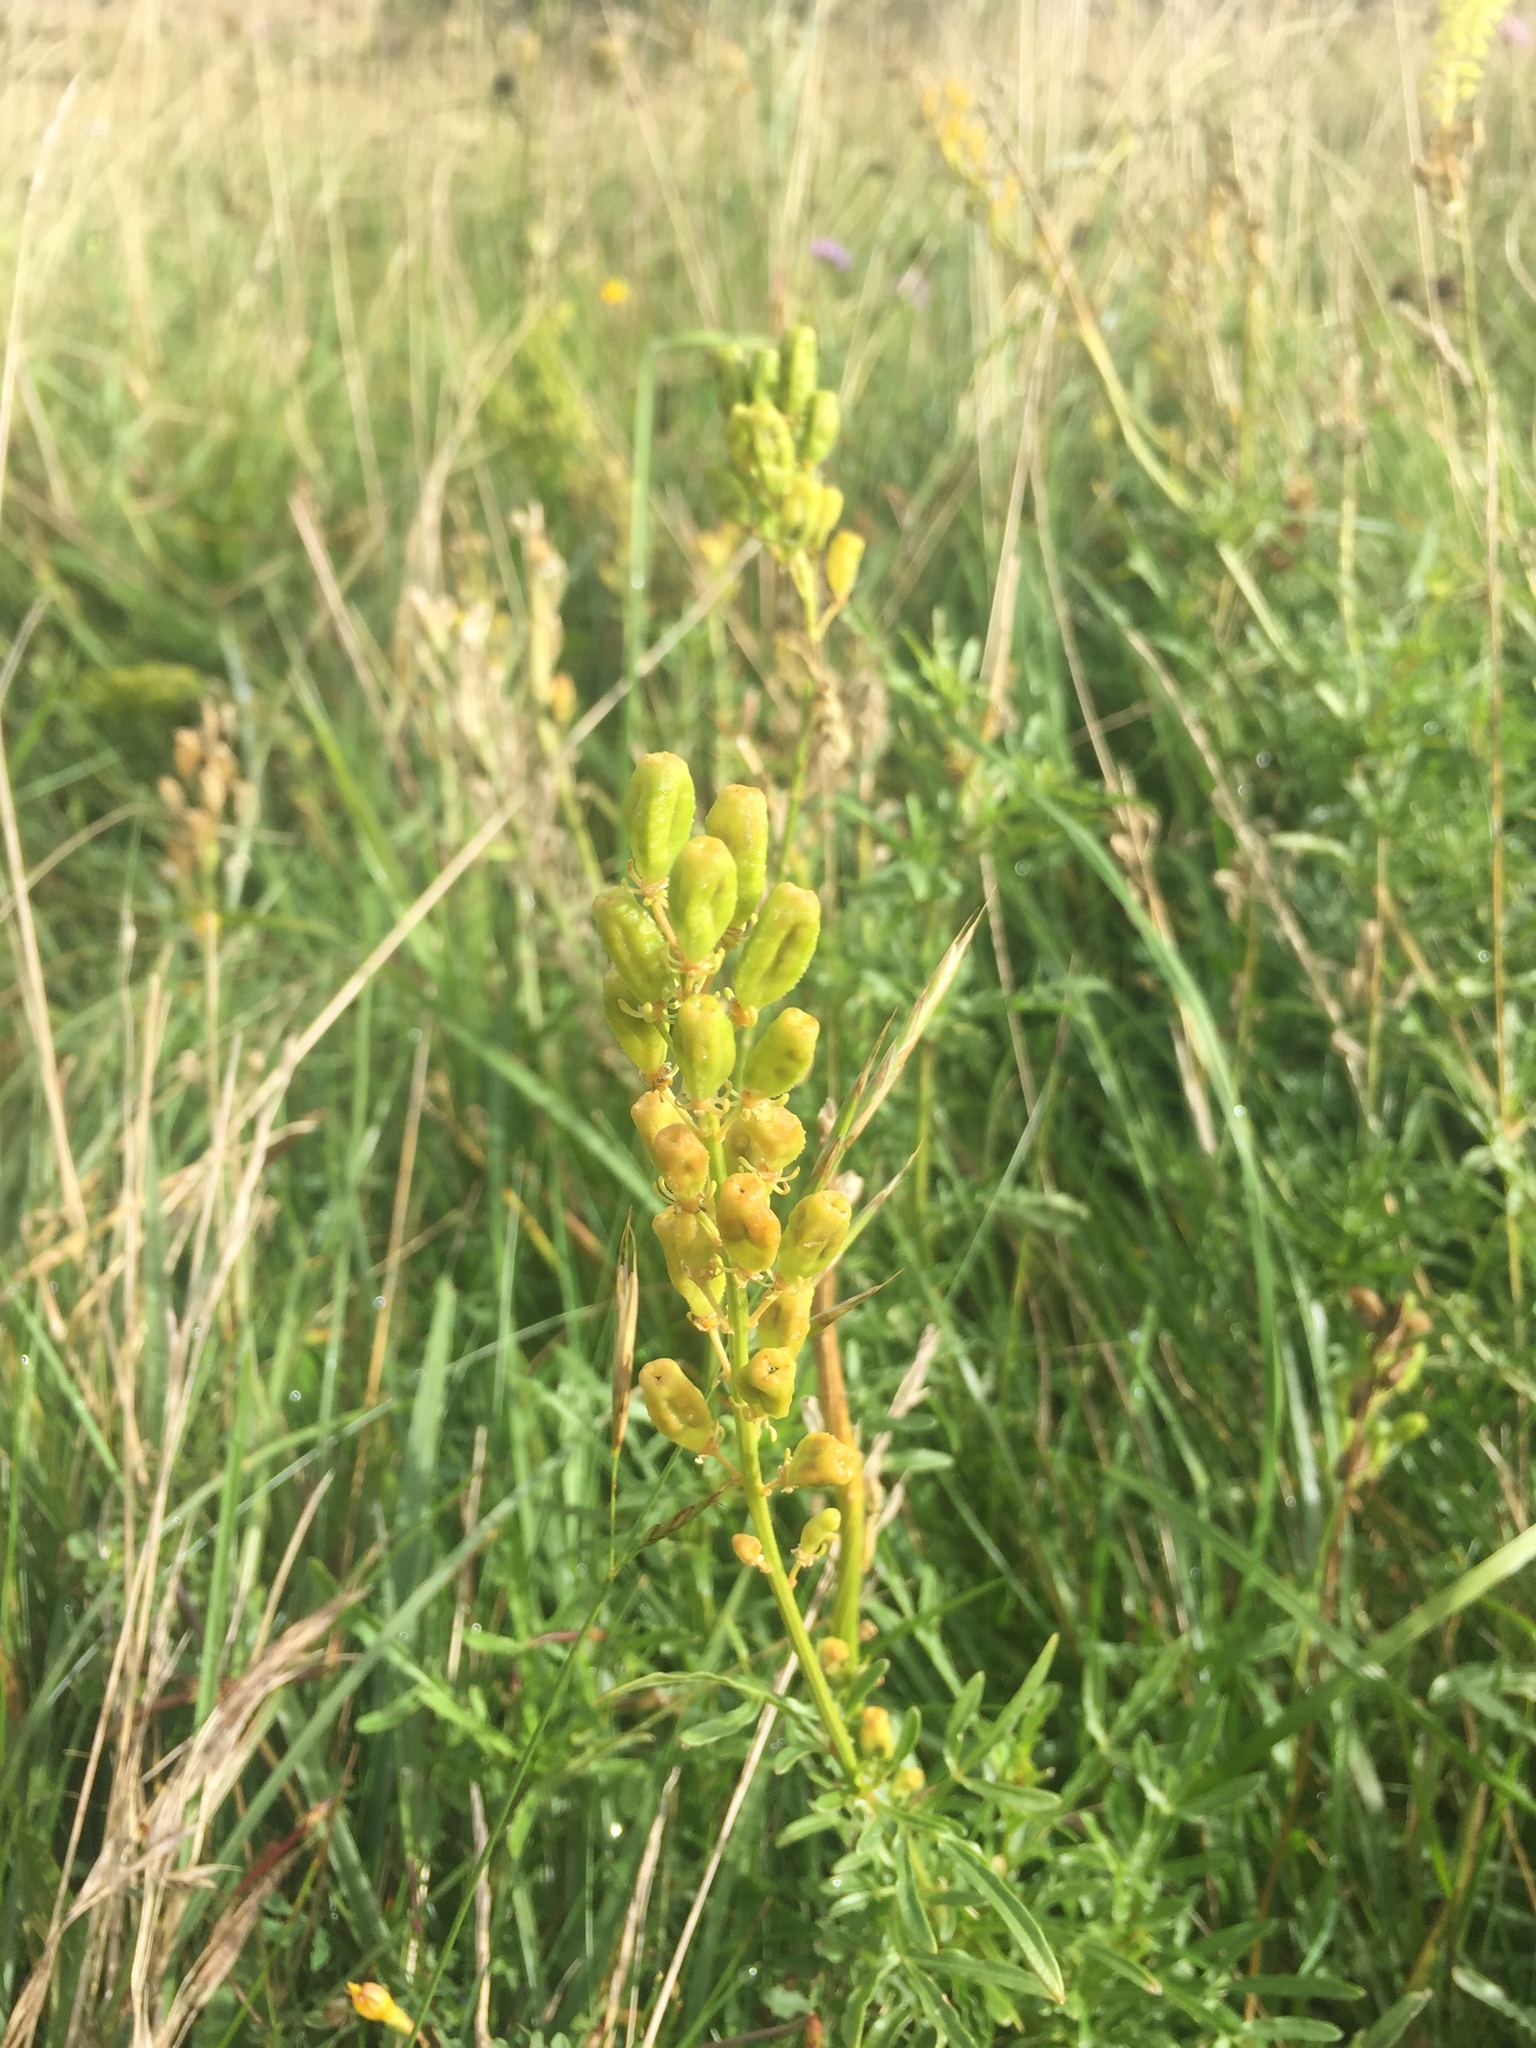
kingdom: Plantae
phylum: Tracheophyta
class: Magnoliopsida
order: Brassicales
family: Resedaceae
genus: Reseda
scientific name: Reseda lutea
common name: Wild mignonette
